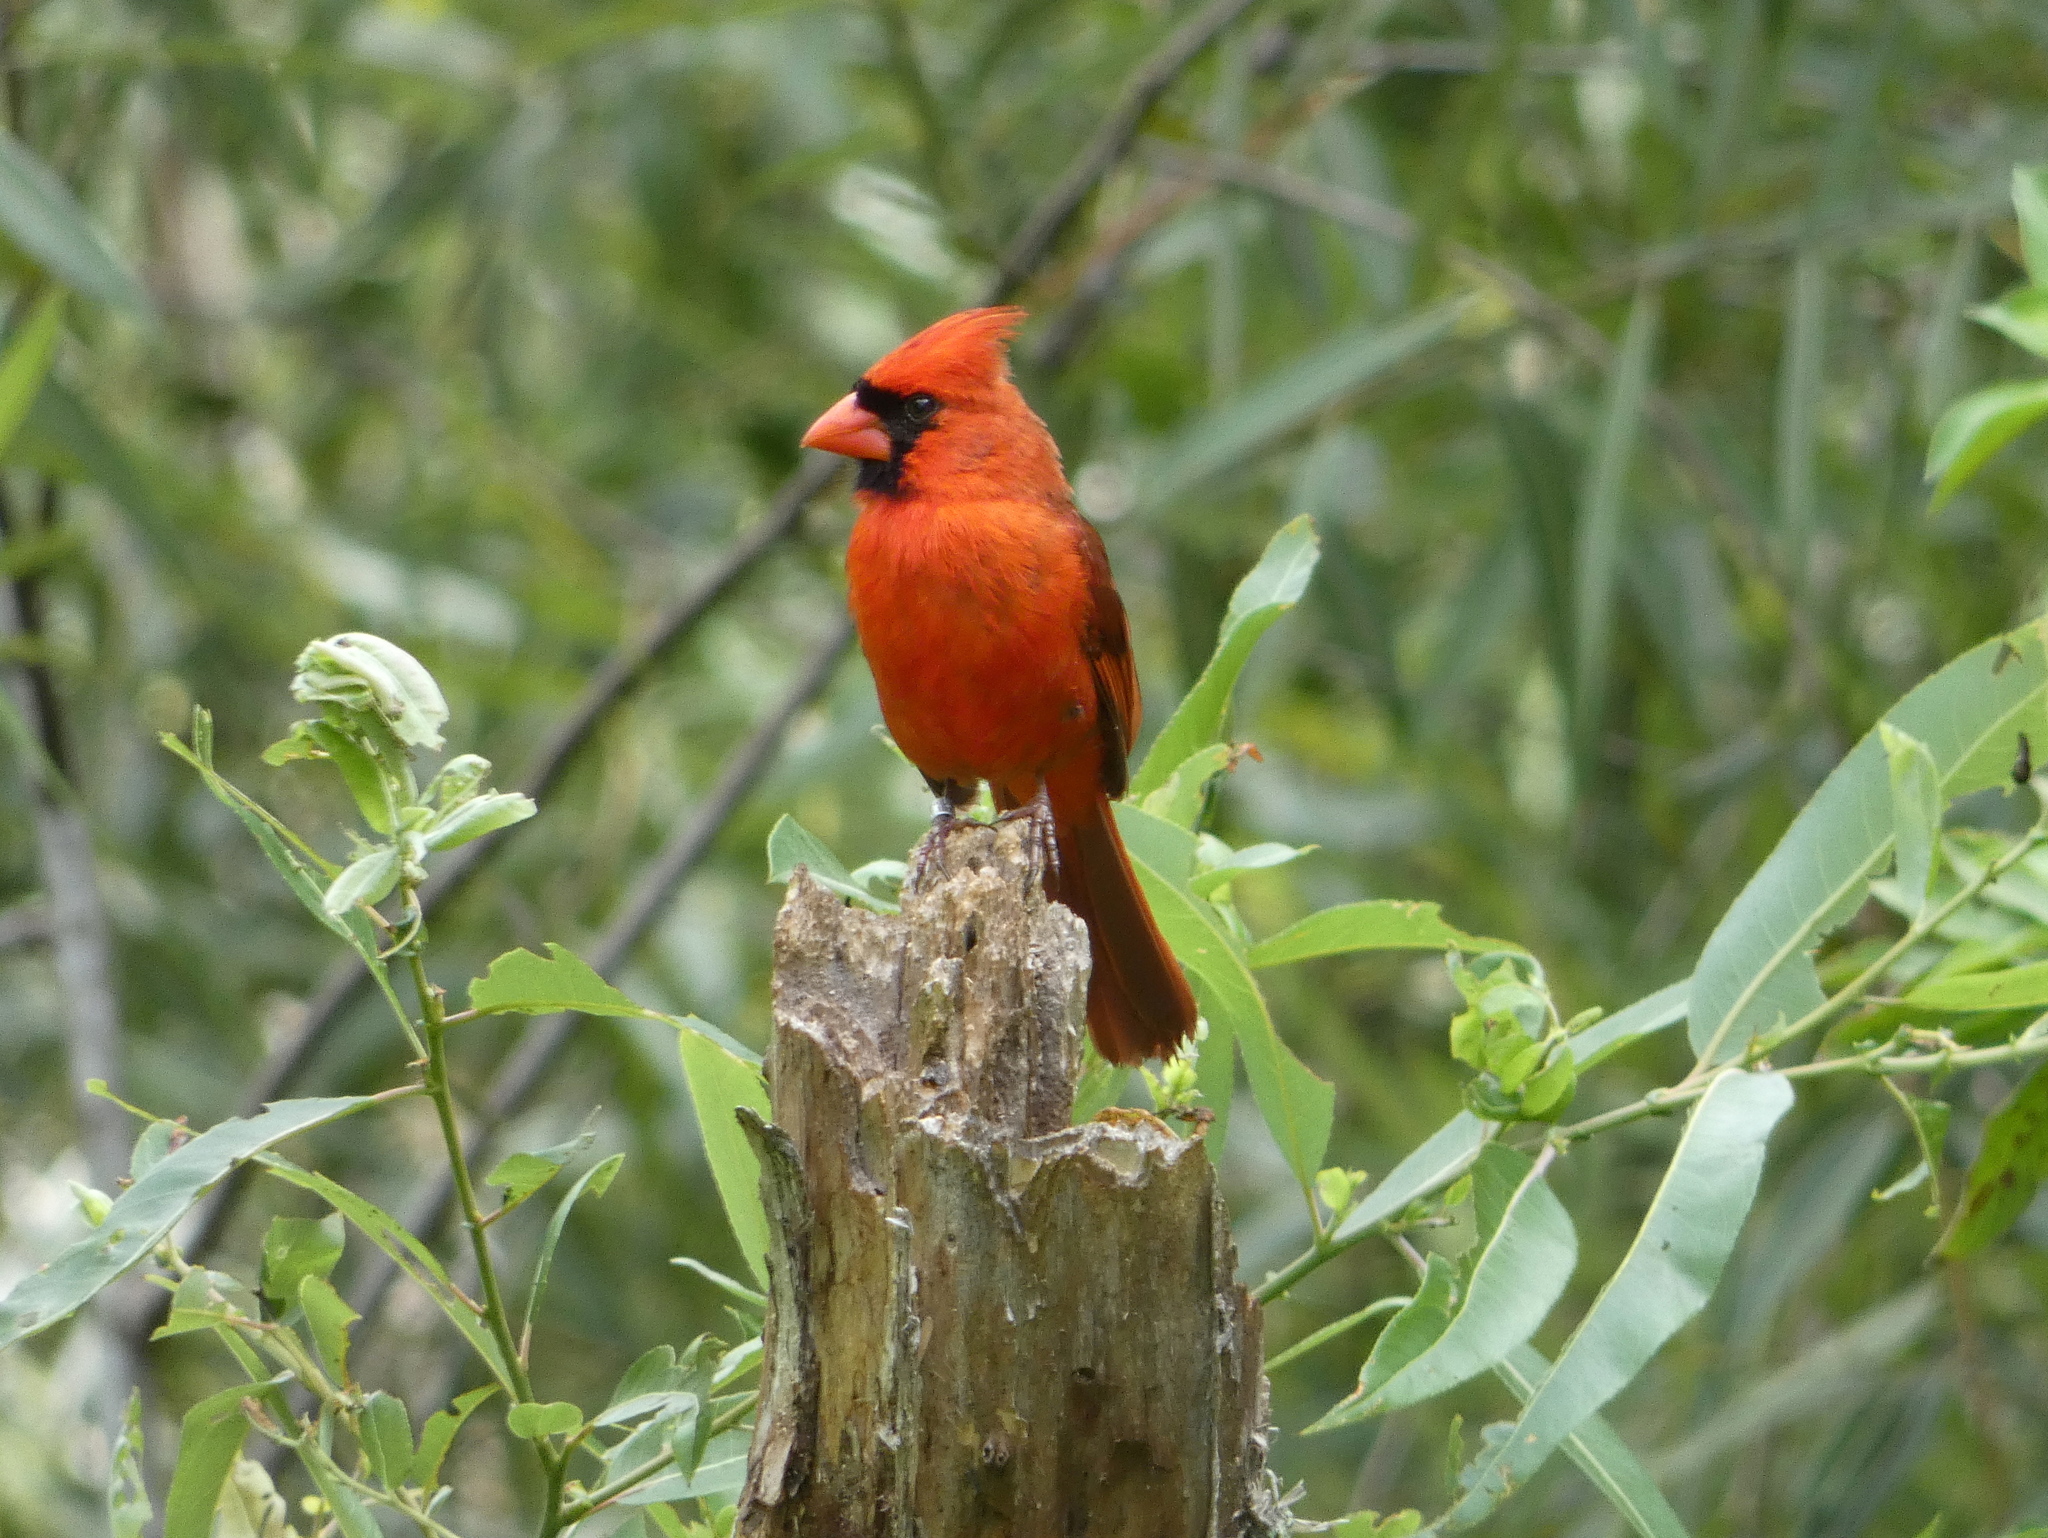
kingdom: Animalia
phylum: Chordata
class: Aves
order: Passeriformes
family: Cardinalidae
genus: Cardinalis
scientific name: Cardinalis cardinalis
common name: Northern cardinal
